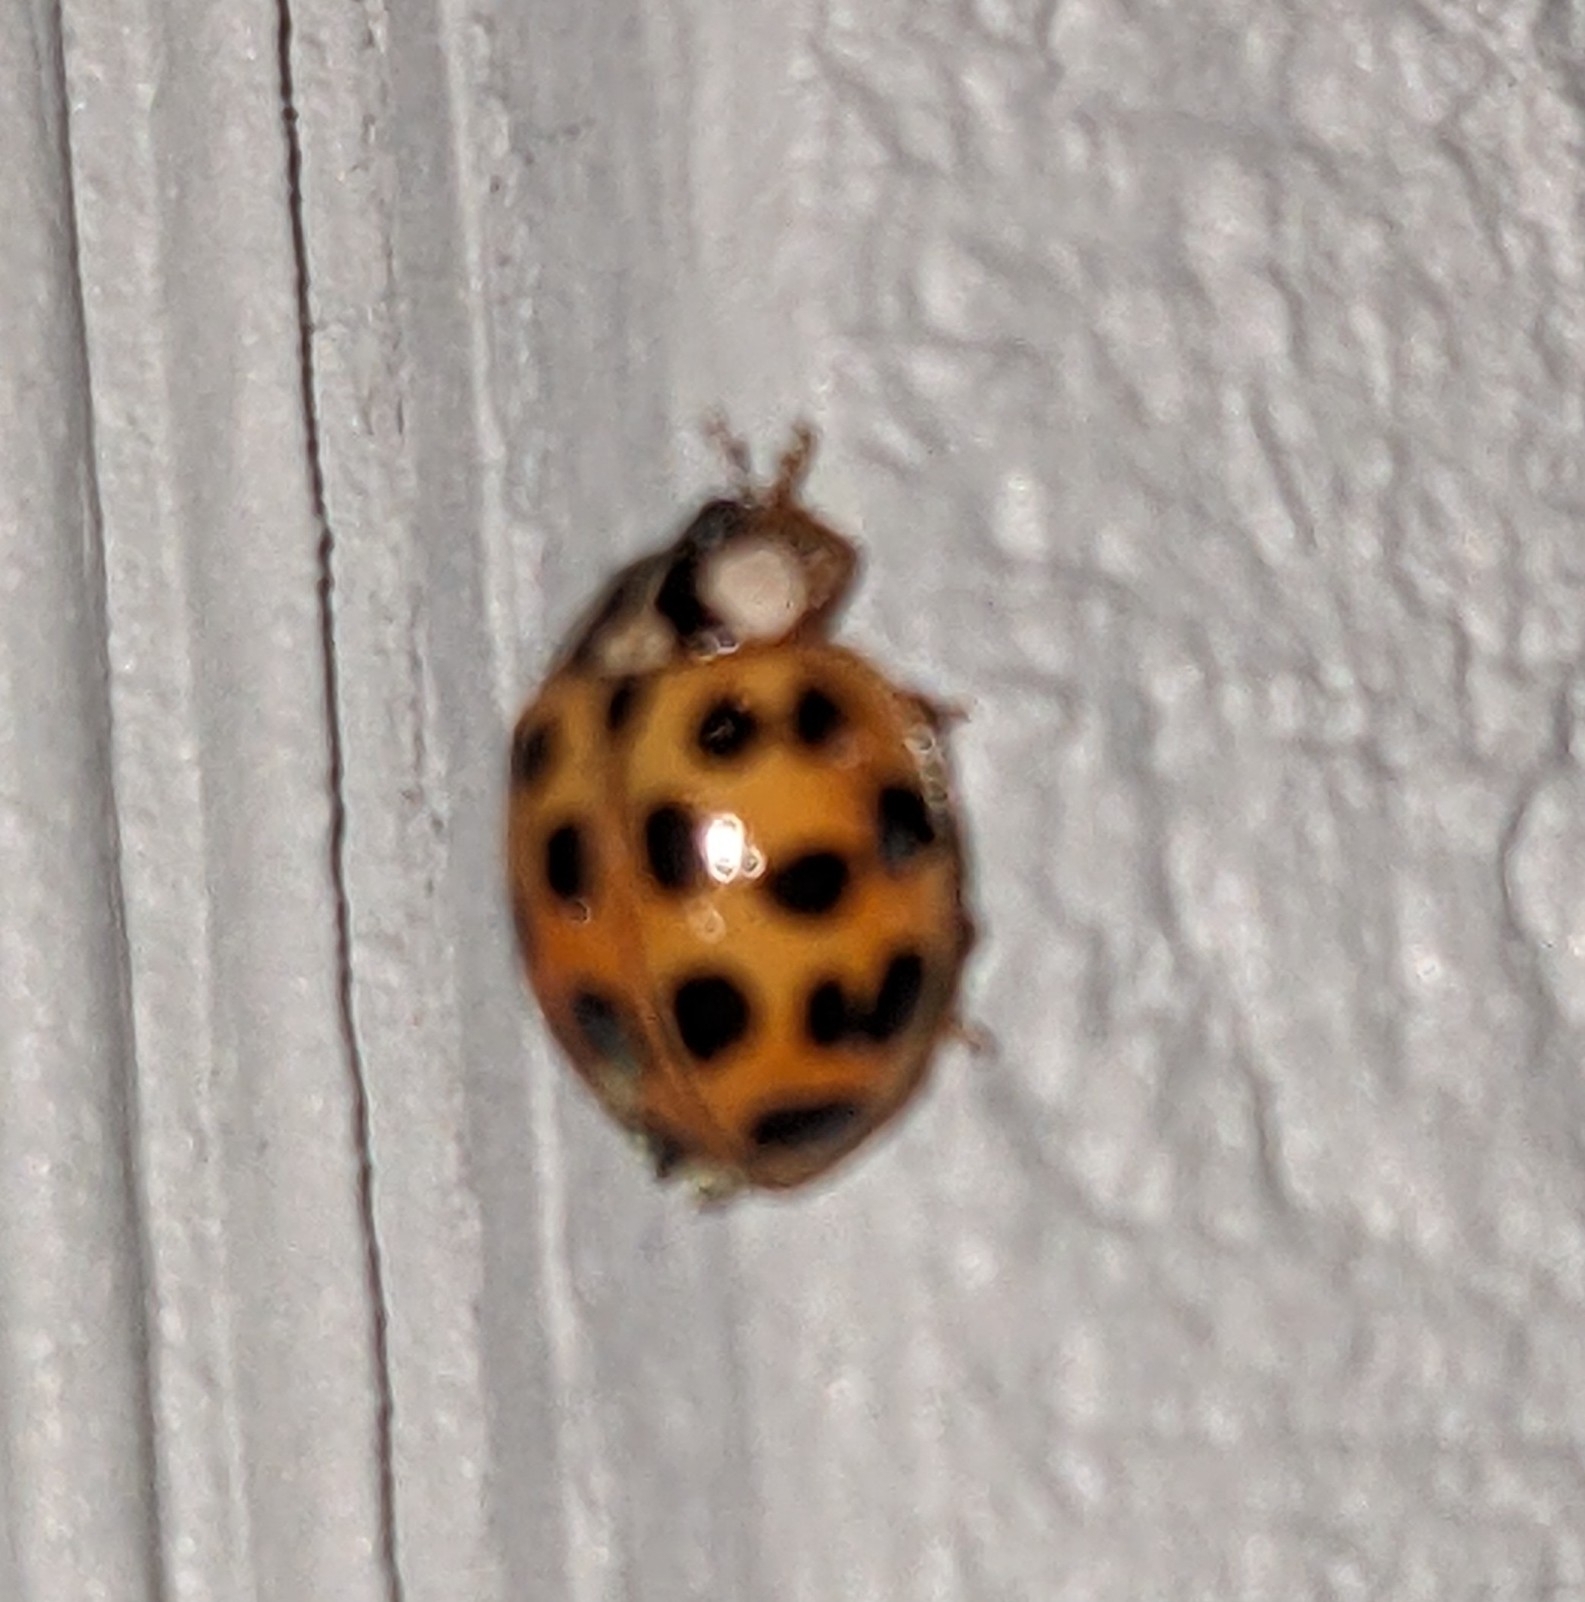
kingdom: Animalia
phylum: Arthropoda
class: Insecta
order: Coleoptera
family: Coccinellidae
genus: Harmonia
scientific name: Harmonia axyridis
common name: Harlequin ladybird
